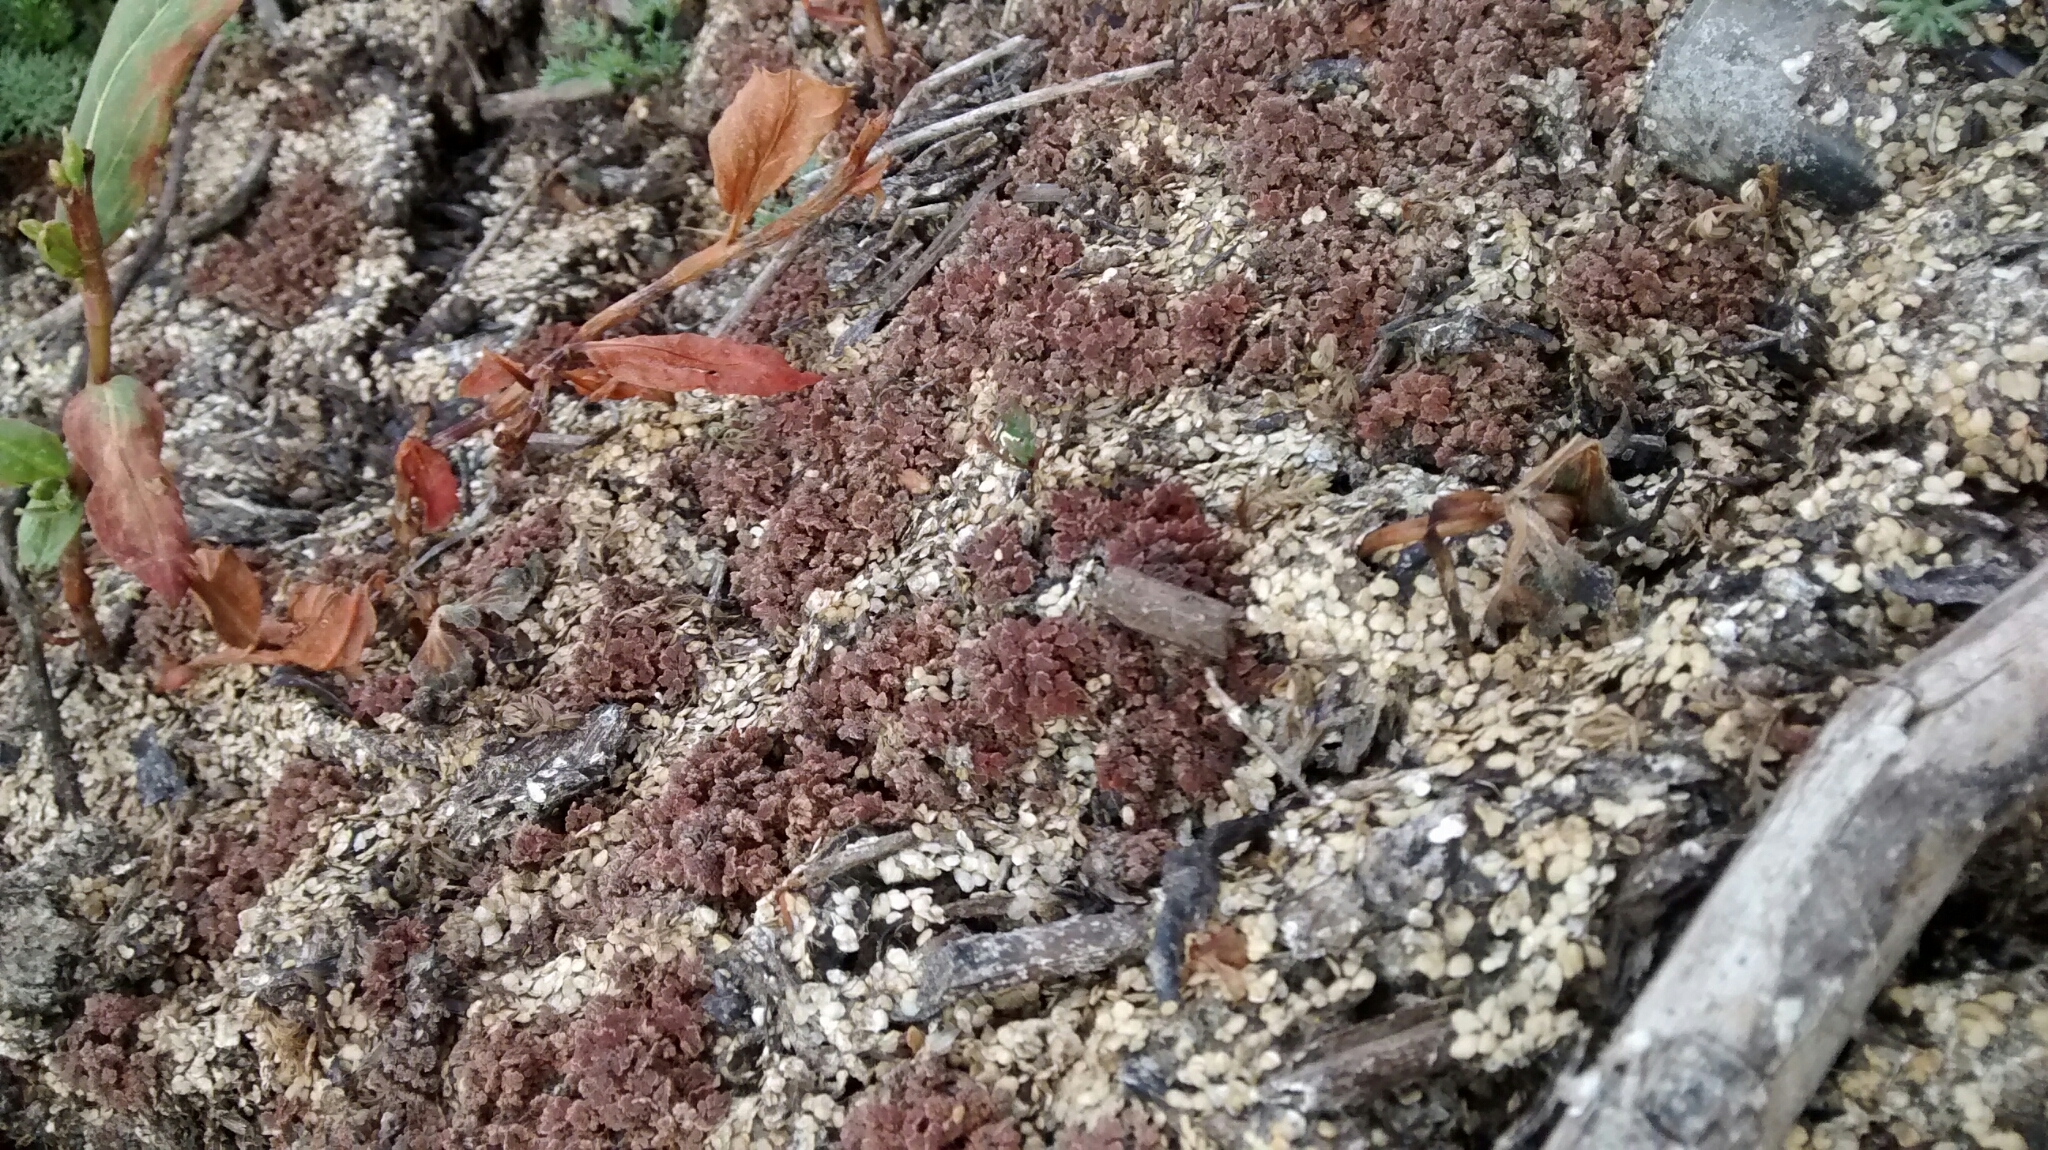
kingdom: Plantae
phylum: Tracheophyta
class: Polypodiopsida
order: Salviniales
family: Salviniaceae
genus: Azolla
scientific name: Azolla cristata
